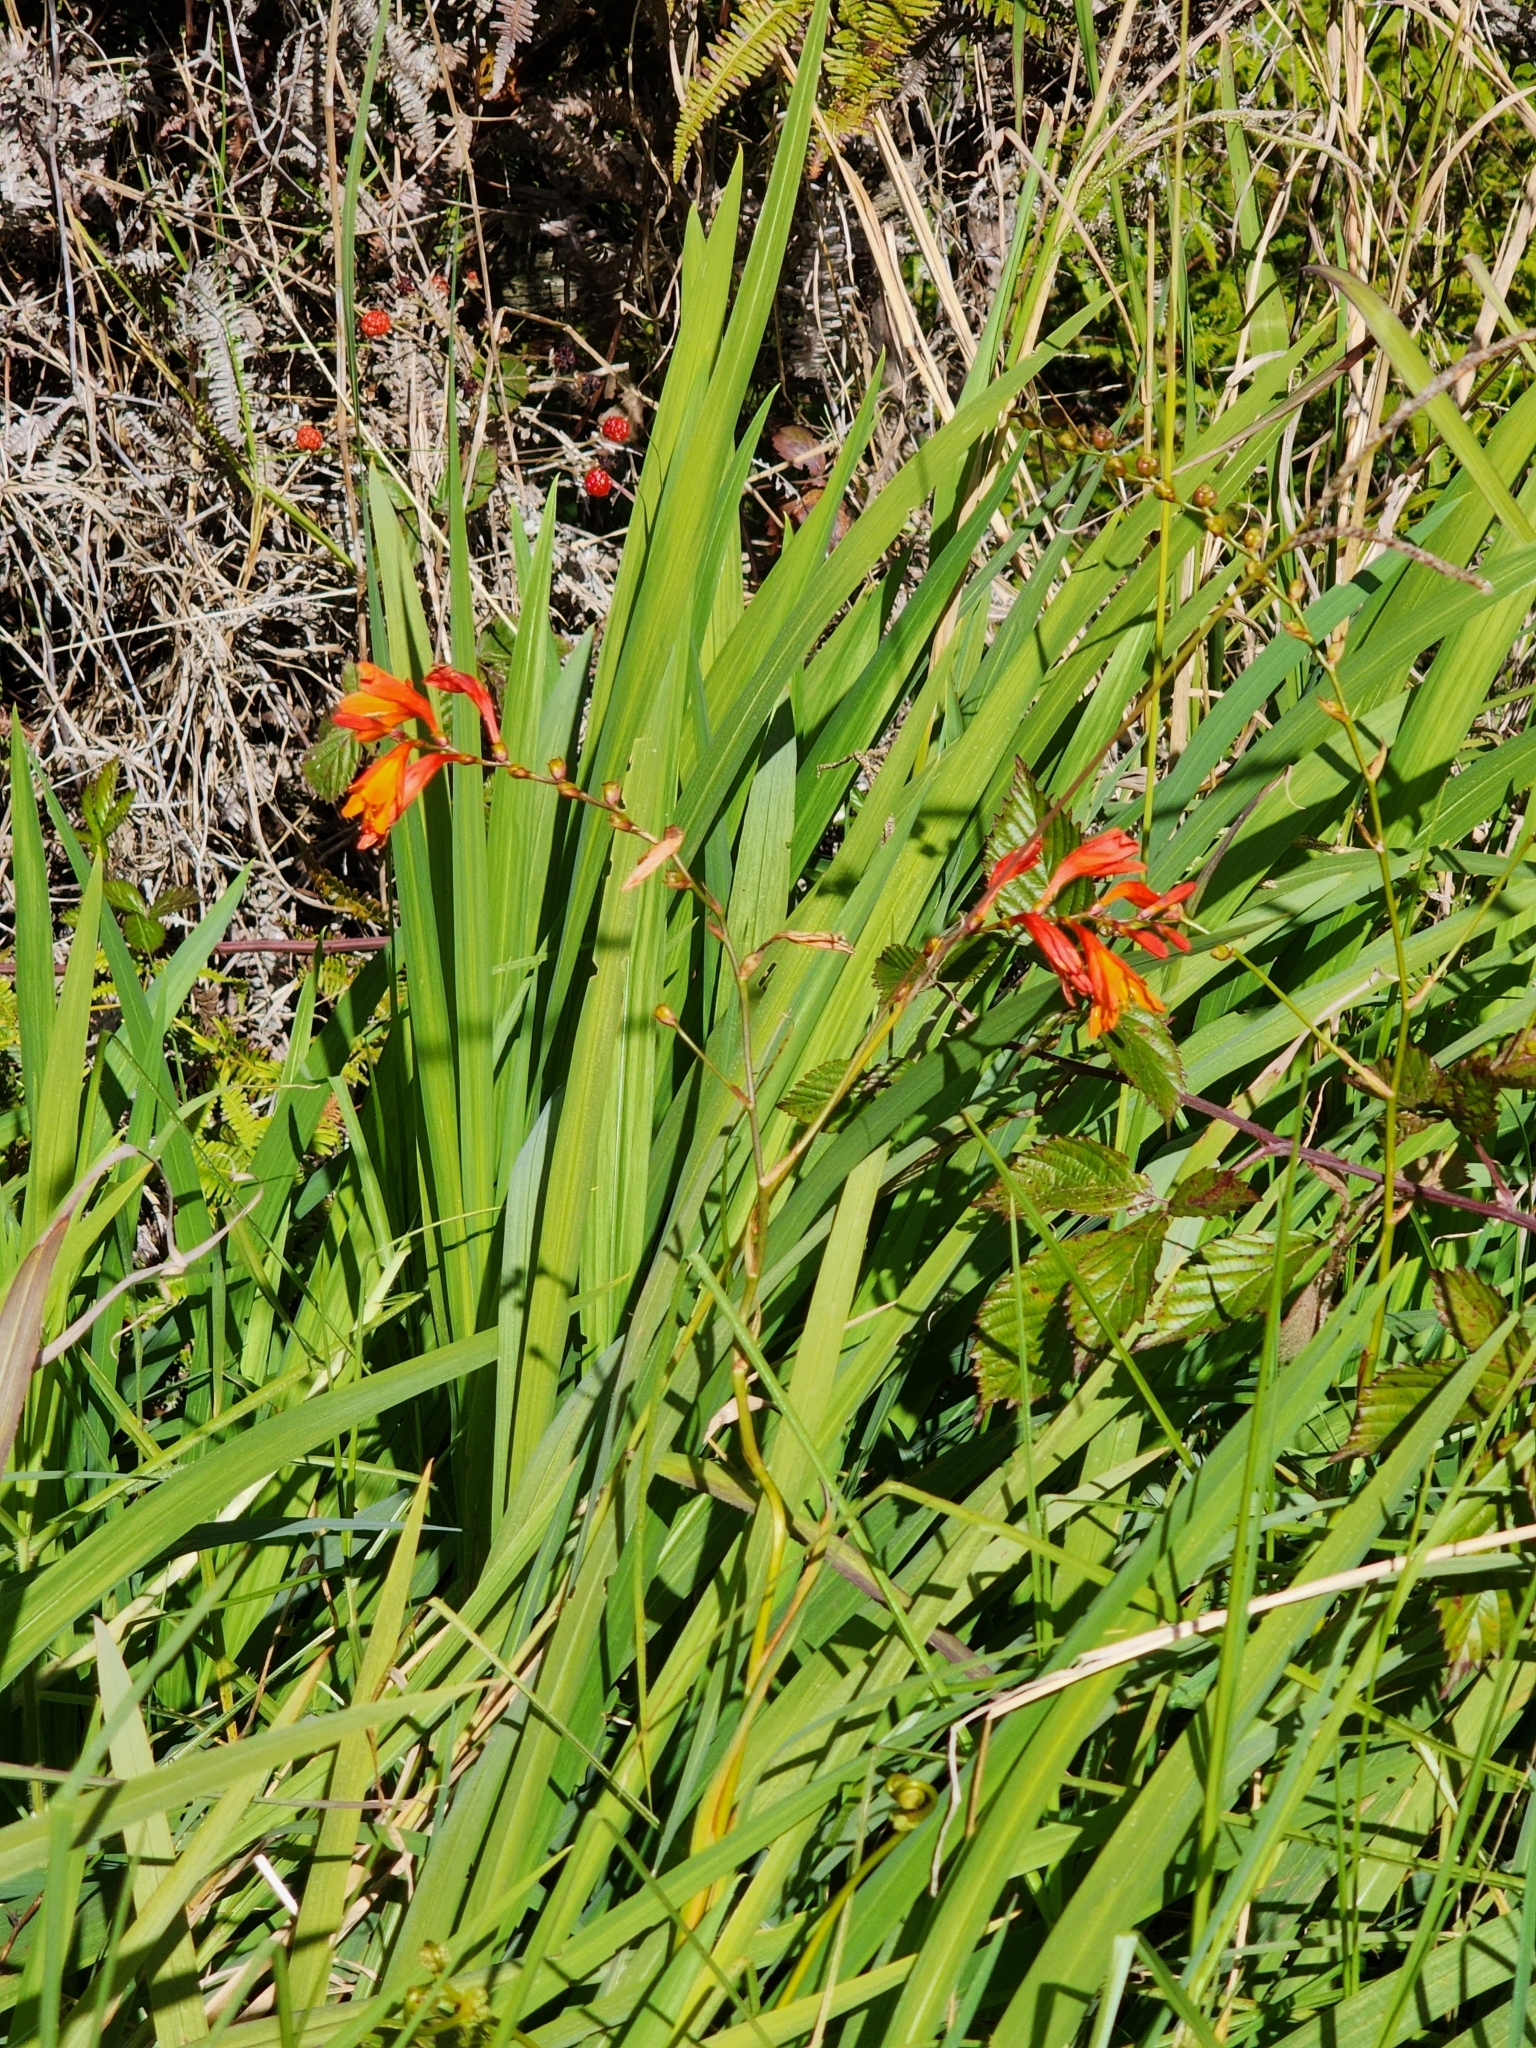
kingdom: Plantae
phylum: Tracheophyta
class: Liliopsida
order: Asparagales
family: Iridaceae
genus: Crocosmia
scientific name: Crocosmia crocosmiiflora
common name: Montbretia
